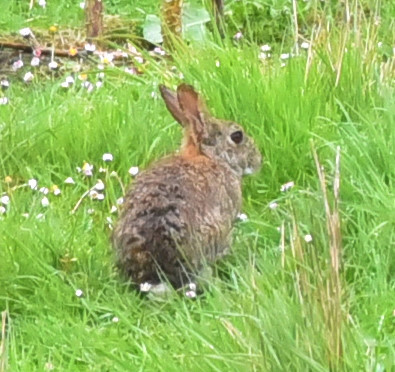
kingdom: Animalia
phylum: Chordata
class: Mammalia
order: Lagomorpha
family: Leporidae
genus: Oryctolagus
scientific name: Oryctolagus cuniculus
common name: European rabbit
